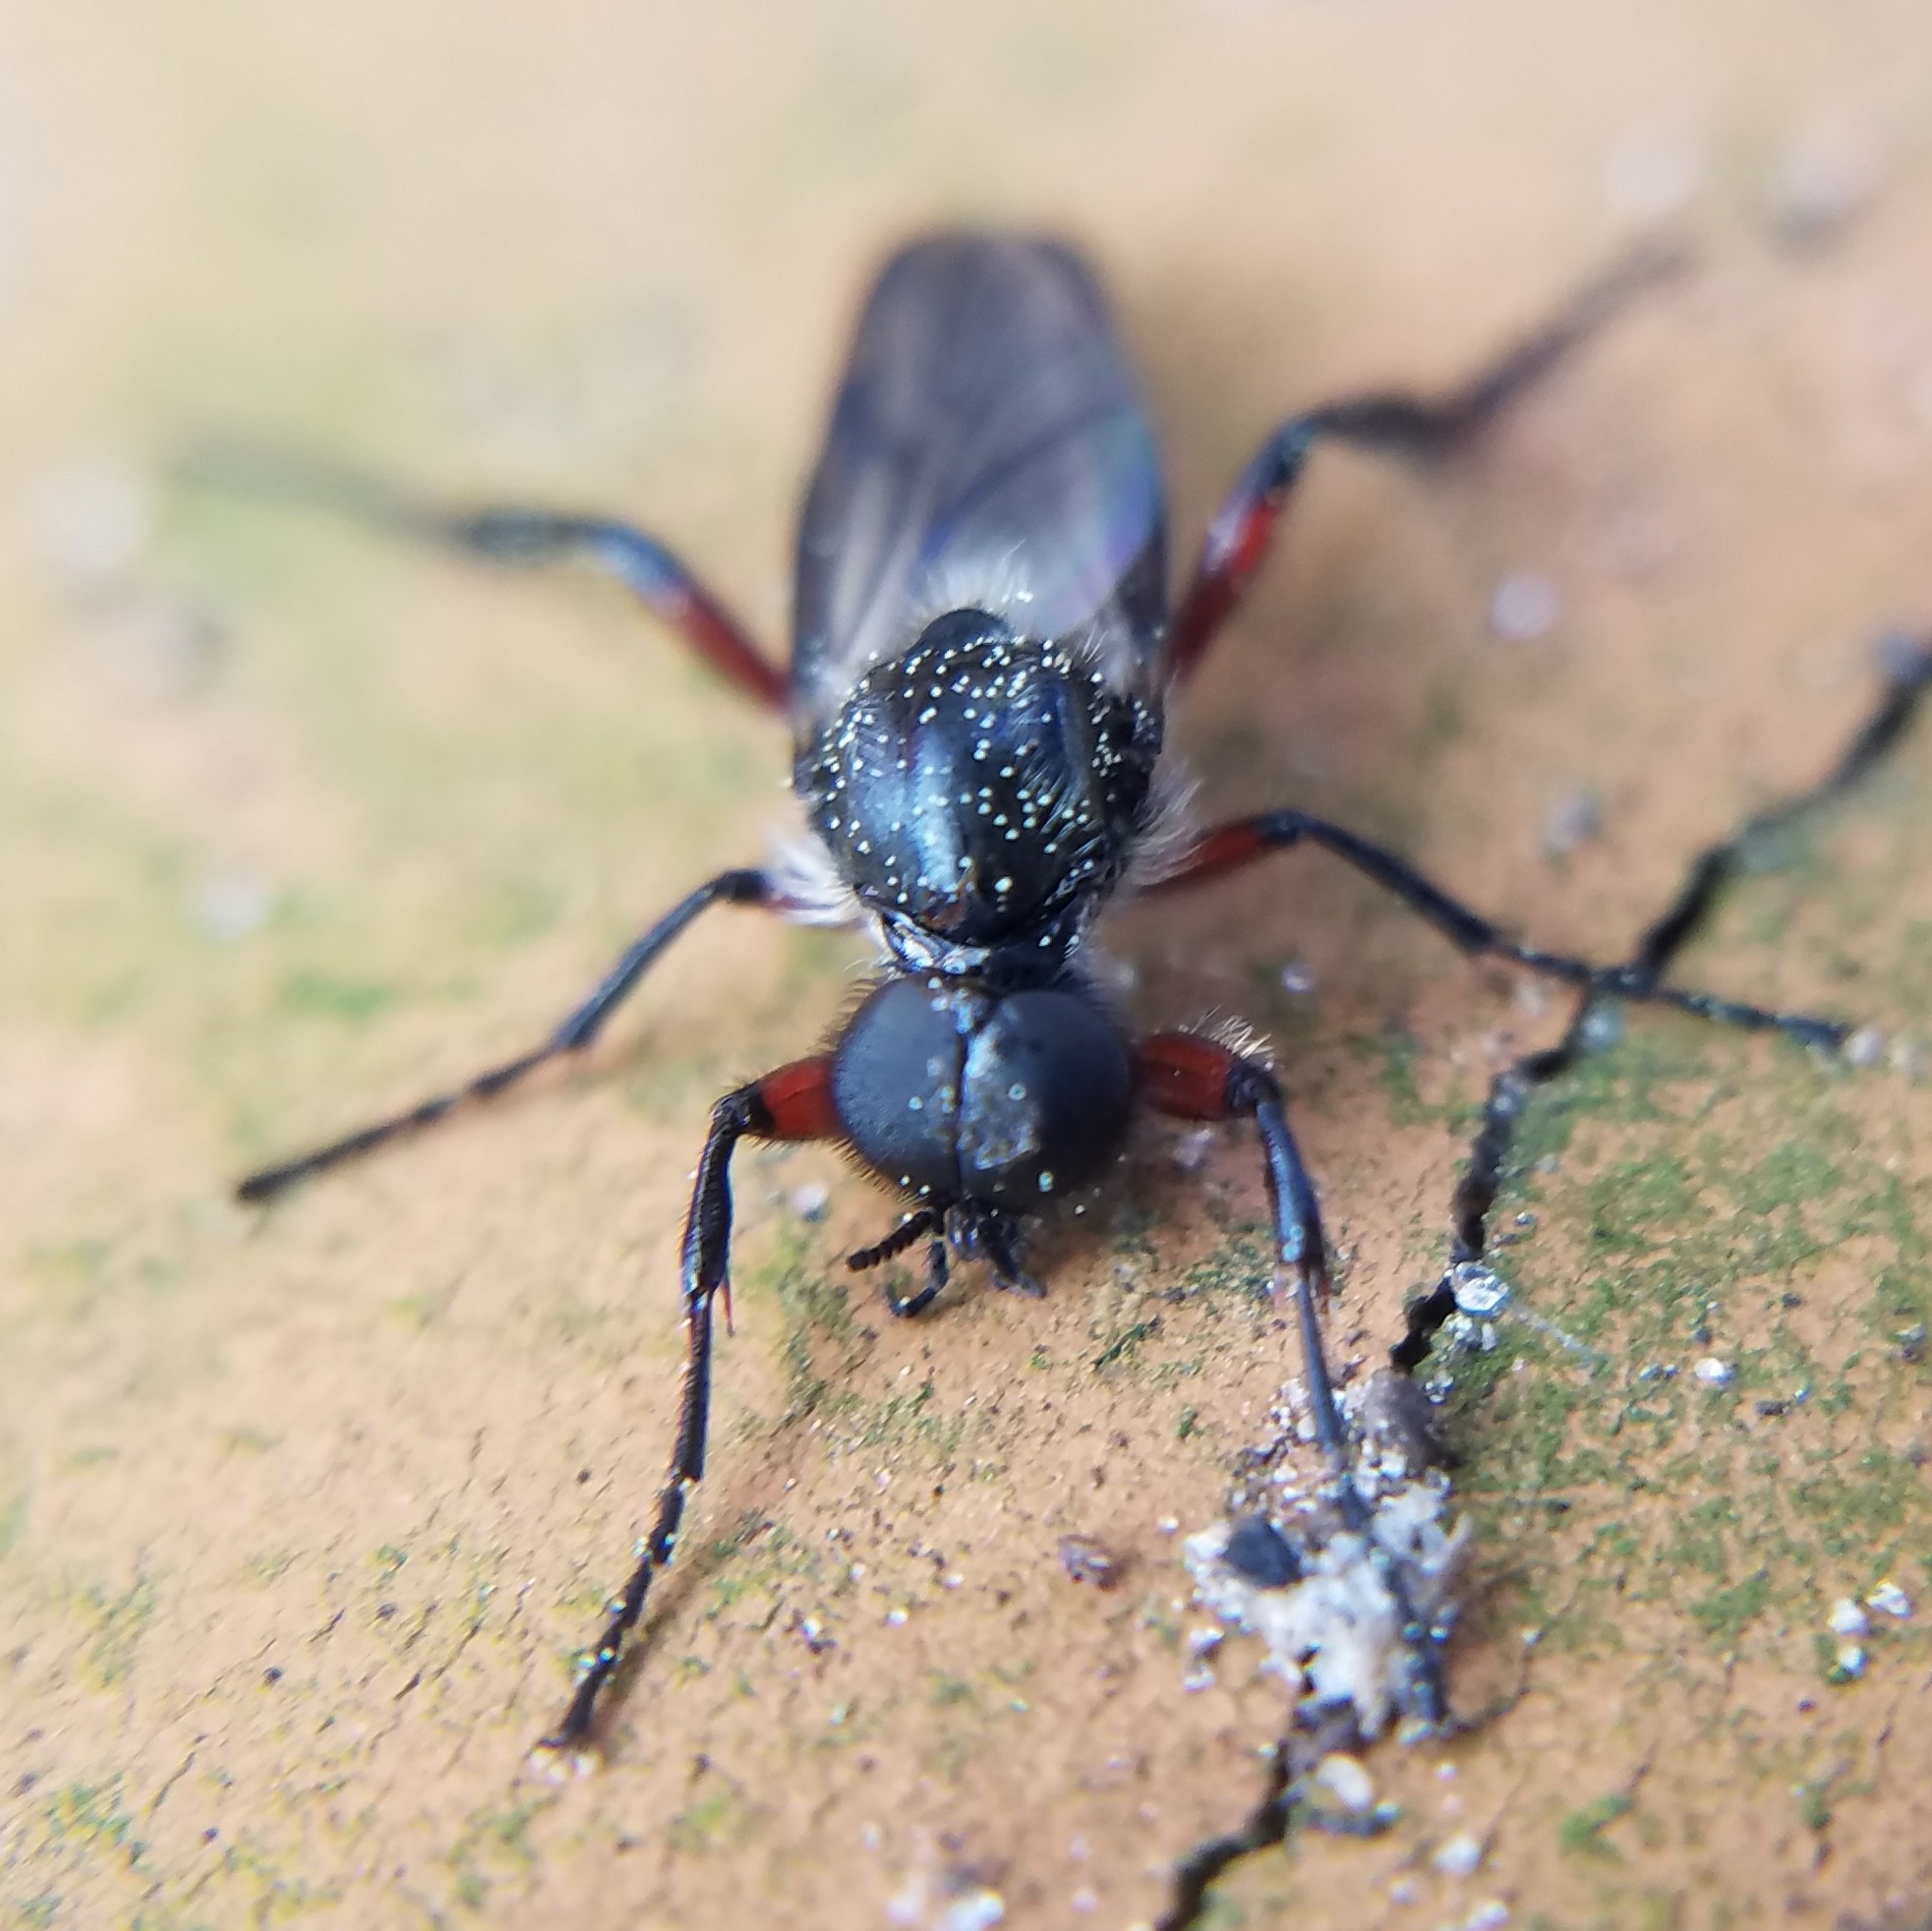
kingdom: Animalia
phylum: Arthropoda
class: Insecta
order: Diptera
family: Bibionidae
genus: Bibio
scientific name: Bibio femoratus
